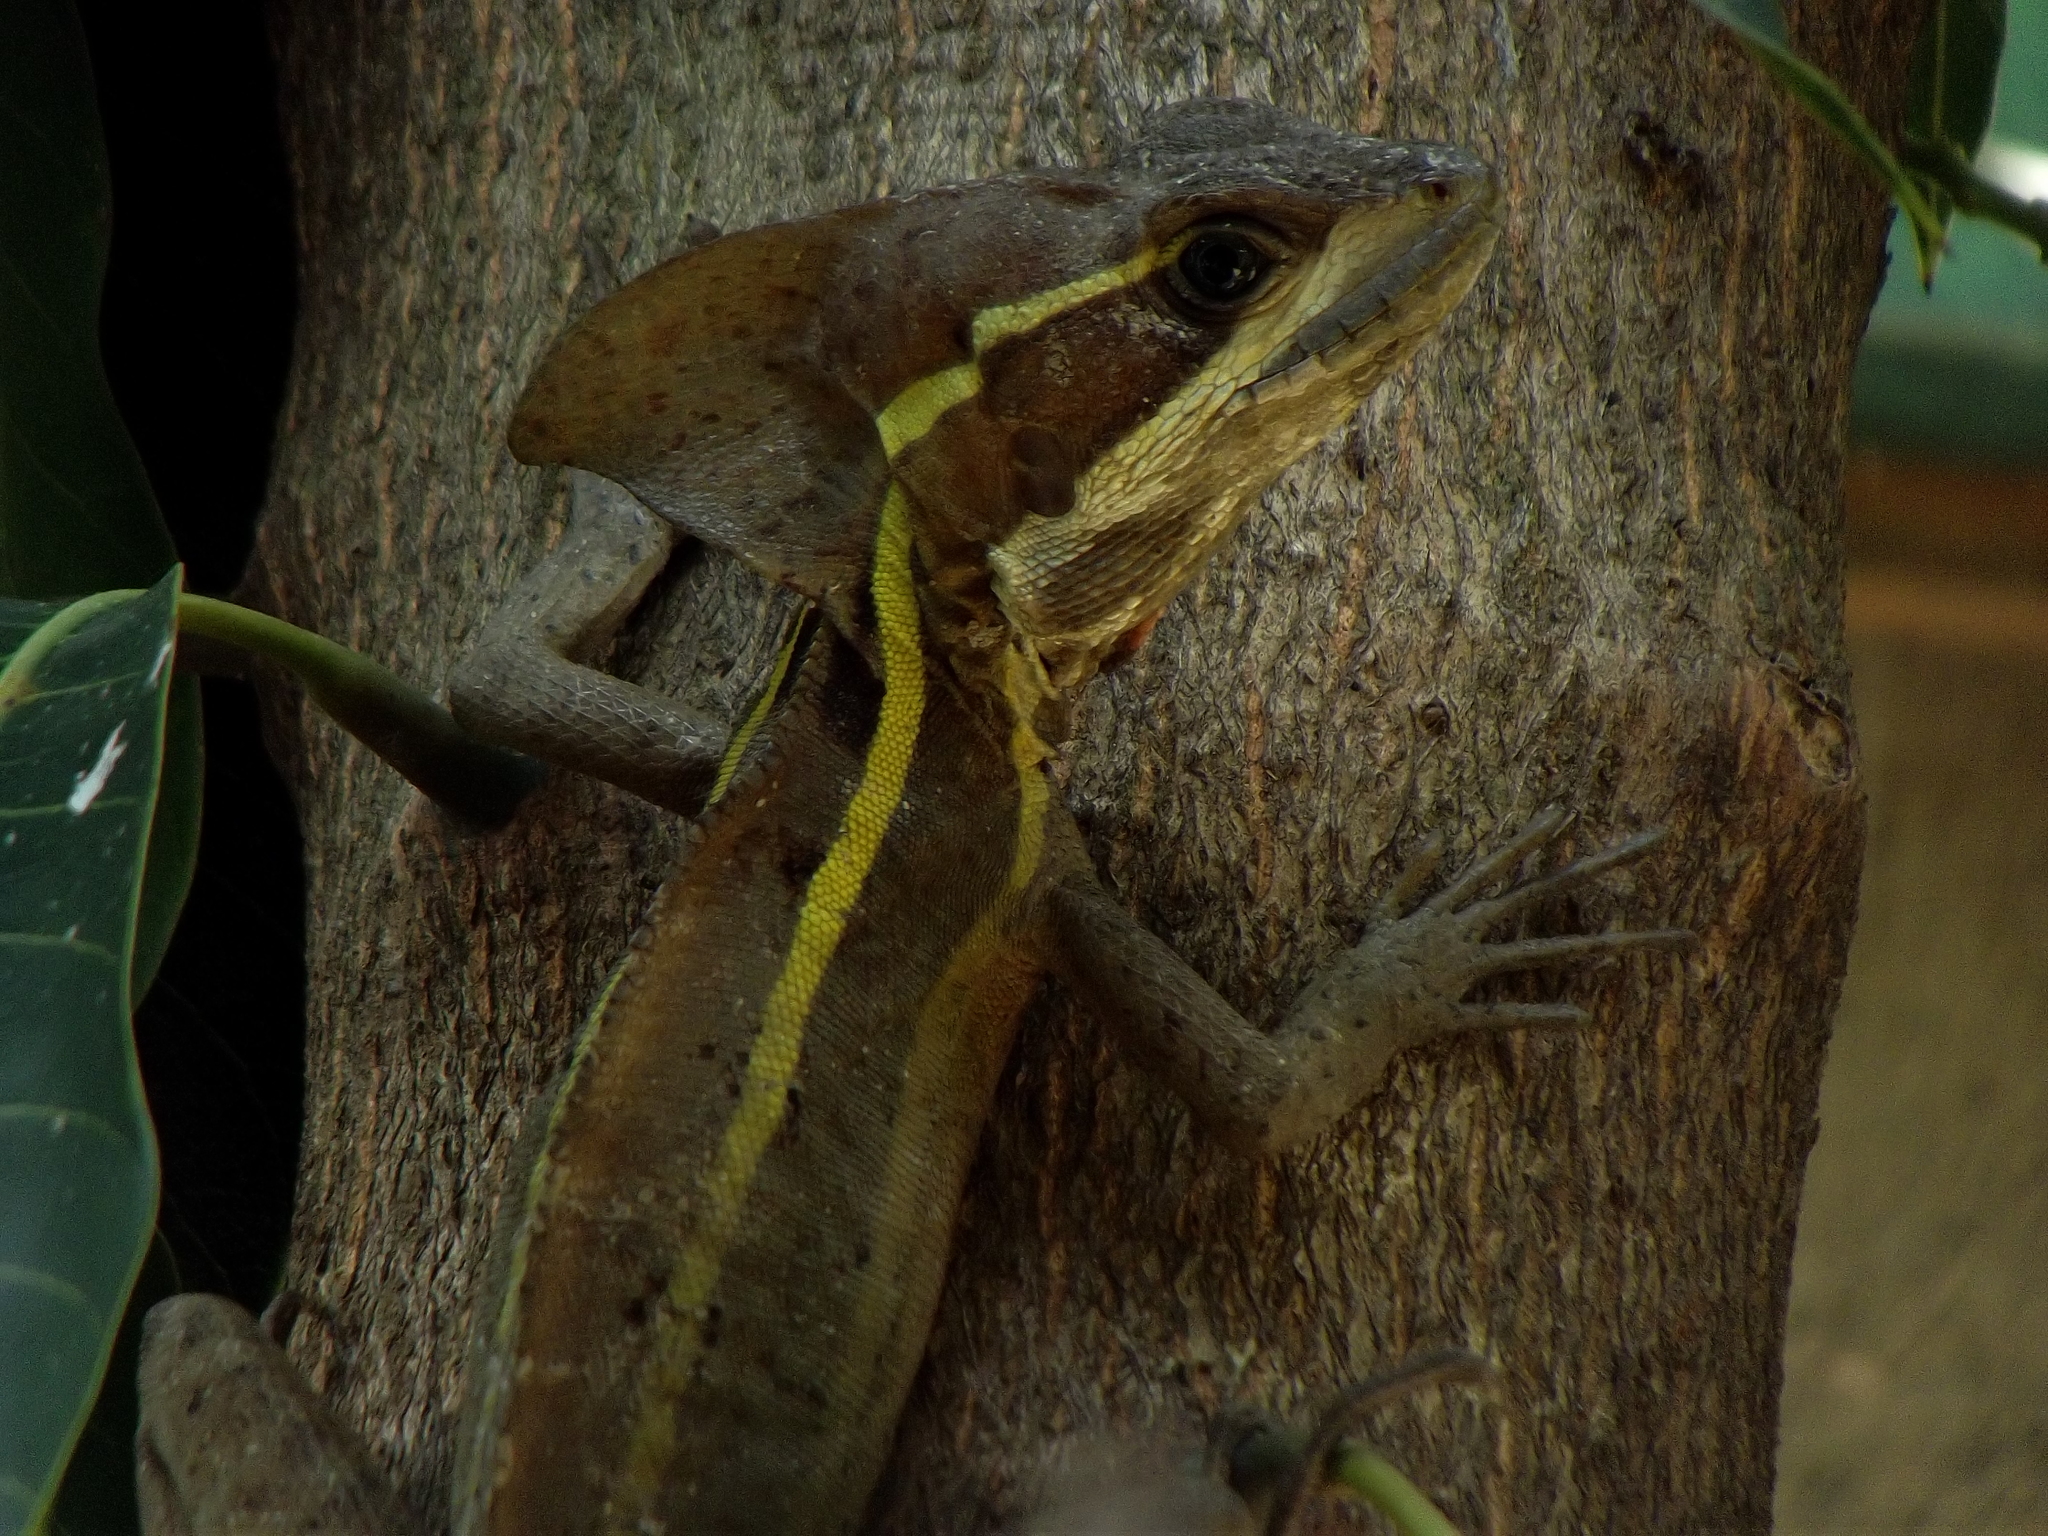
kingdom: Animalia
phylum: Chordata
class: Squamata
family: Corytophanidae
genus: Basiliscus
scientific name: Basiliscus vittatus
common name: Brown basilisk
